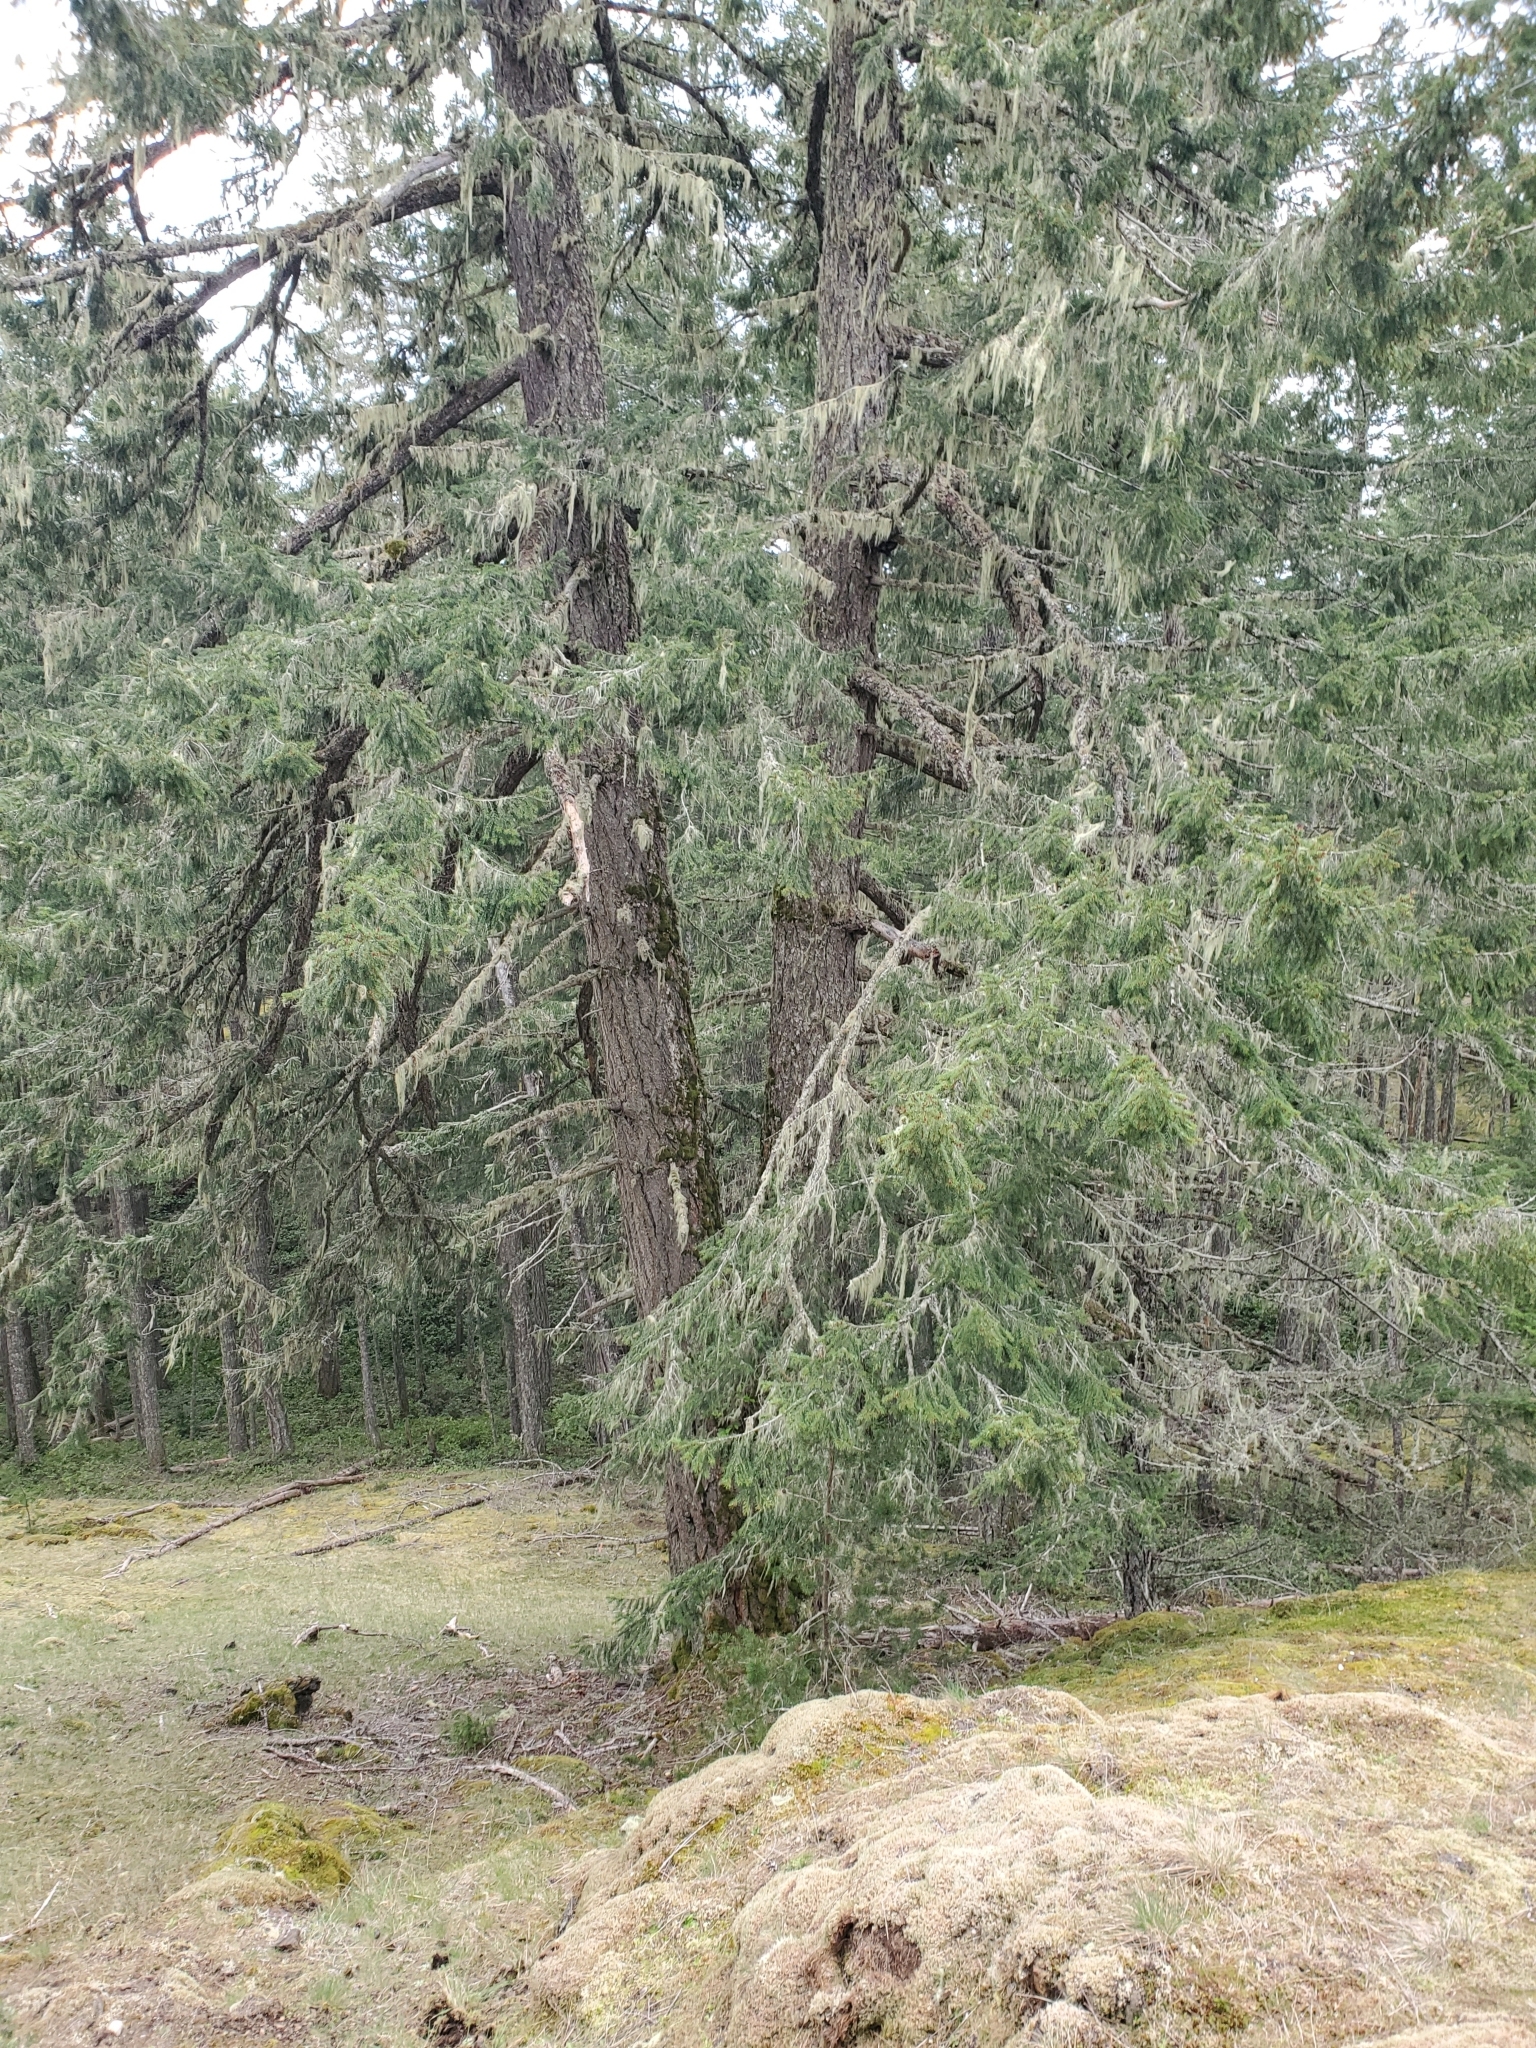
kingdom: Plantae
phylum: Tracheophyta
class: Pinopsida
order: Pinales
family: Pinaceae
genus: Pseudotsuga
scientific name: Pseudotsuga menziesii
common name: Douglas fir
